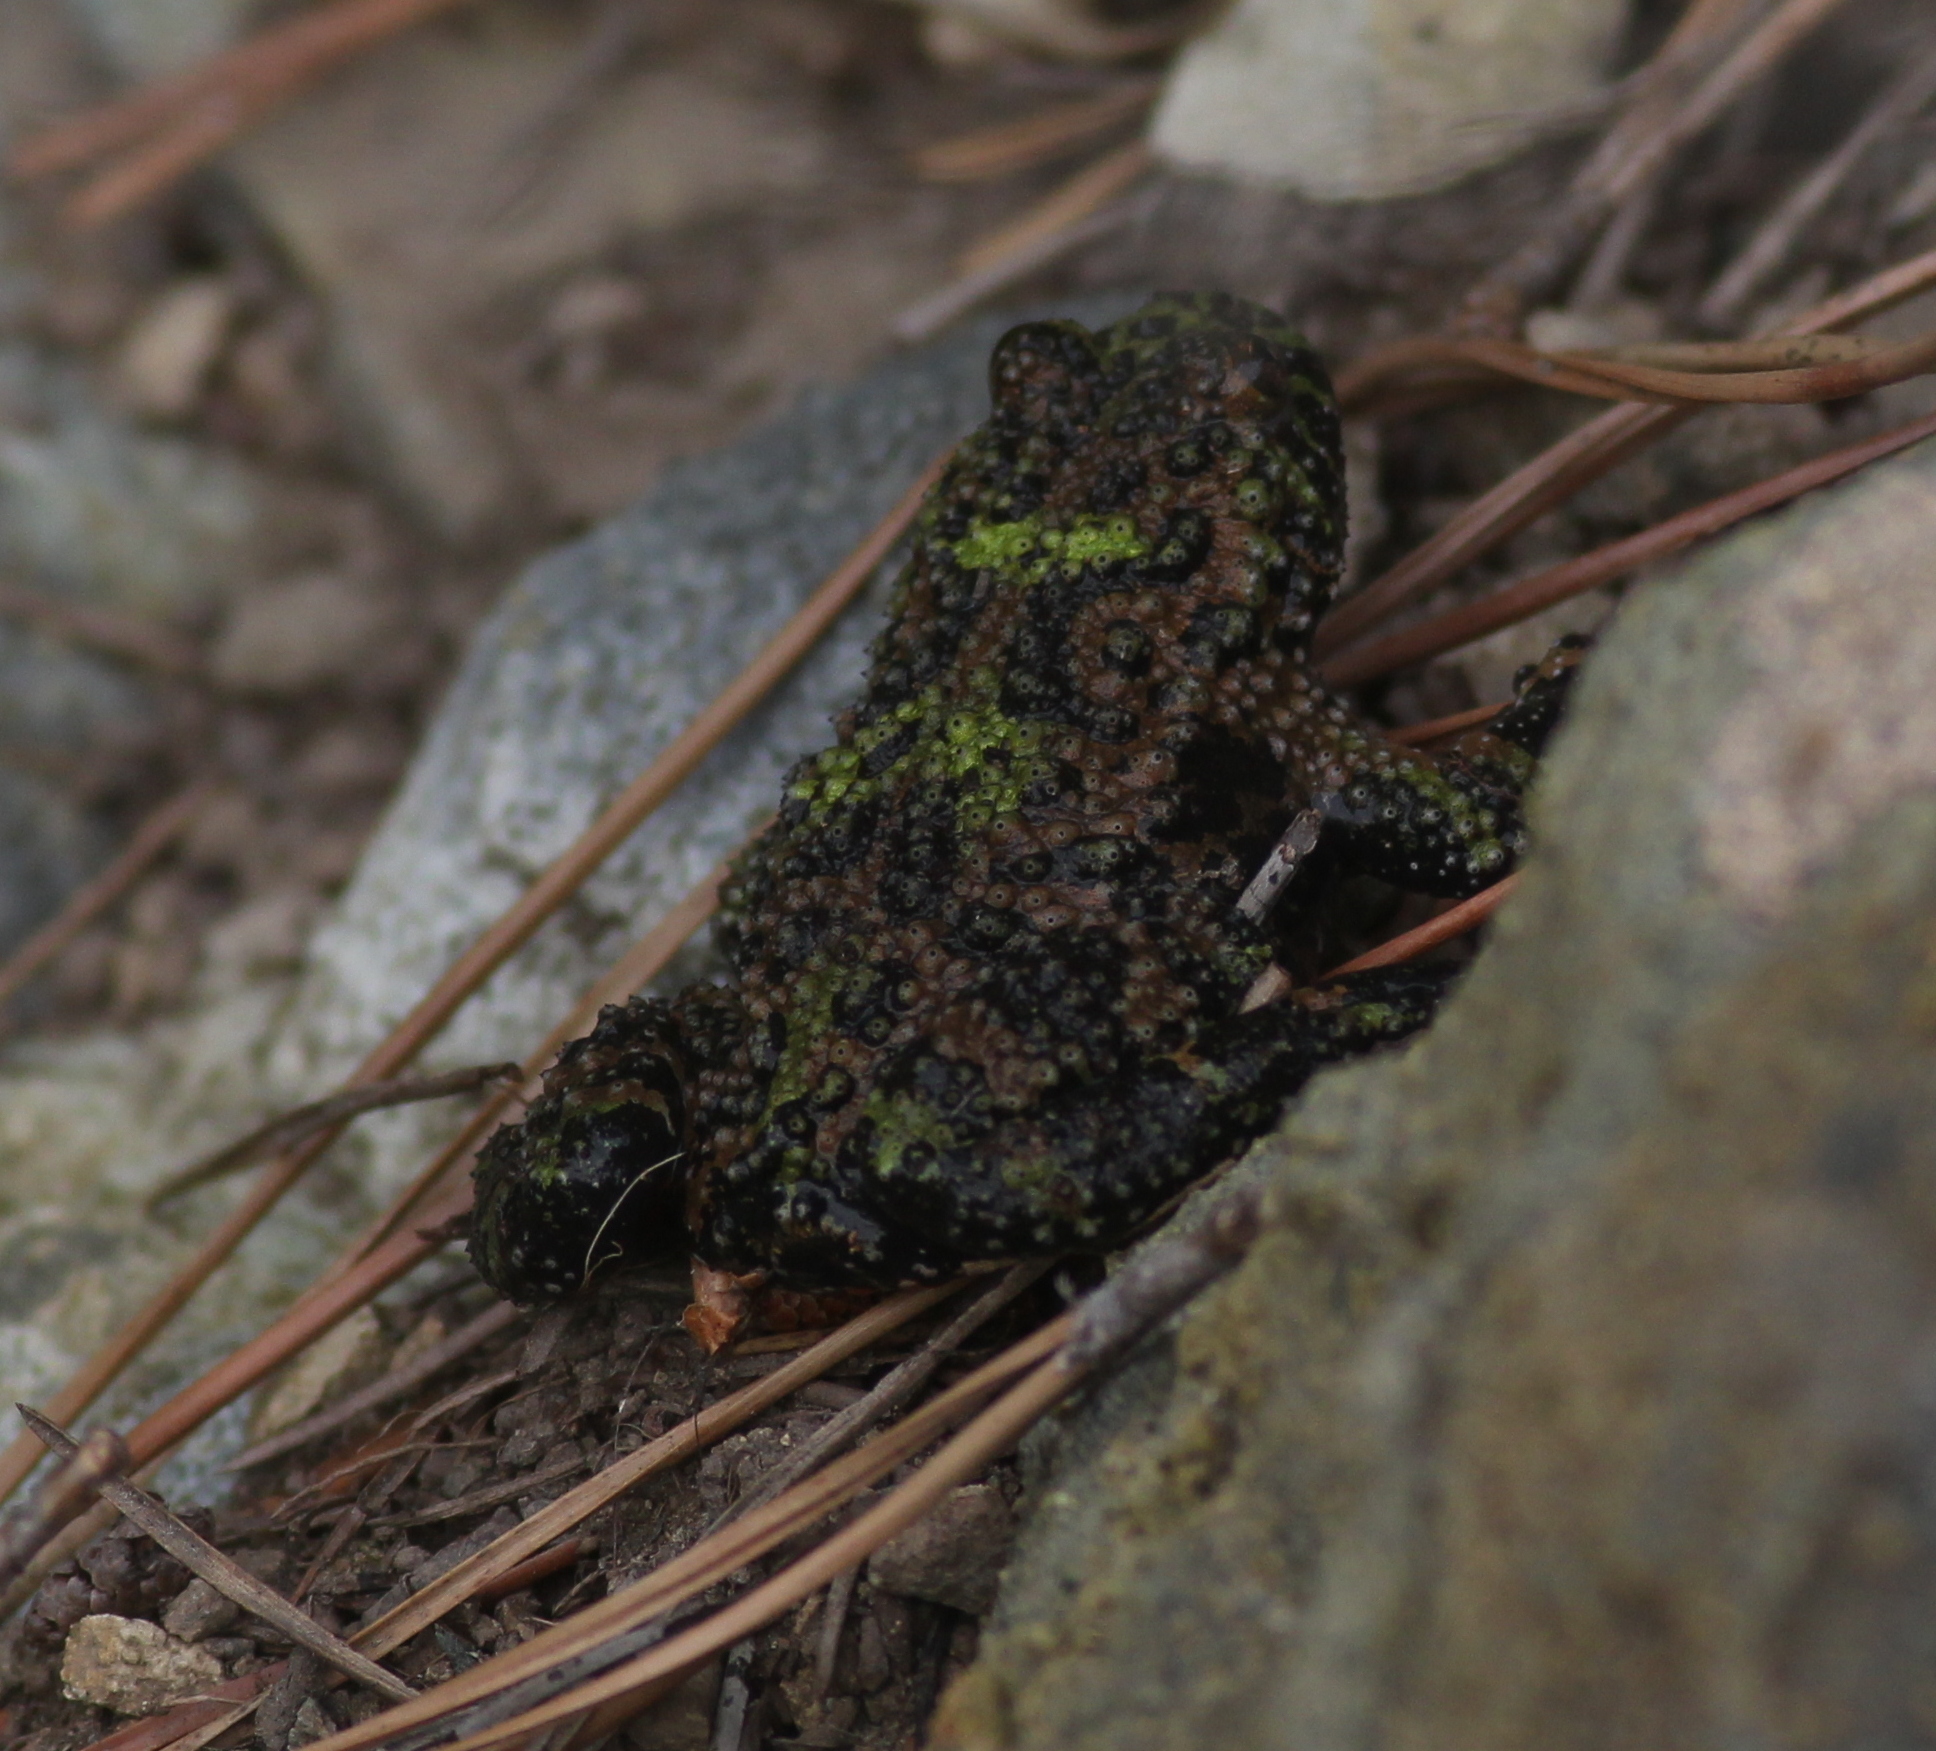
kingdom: Animalia
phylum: Chordata
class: Amphibia
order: Anura
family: Bombinatoridae
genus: Bombina
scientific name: Bombina orientalis
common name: Oriental firebelly toad
